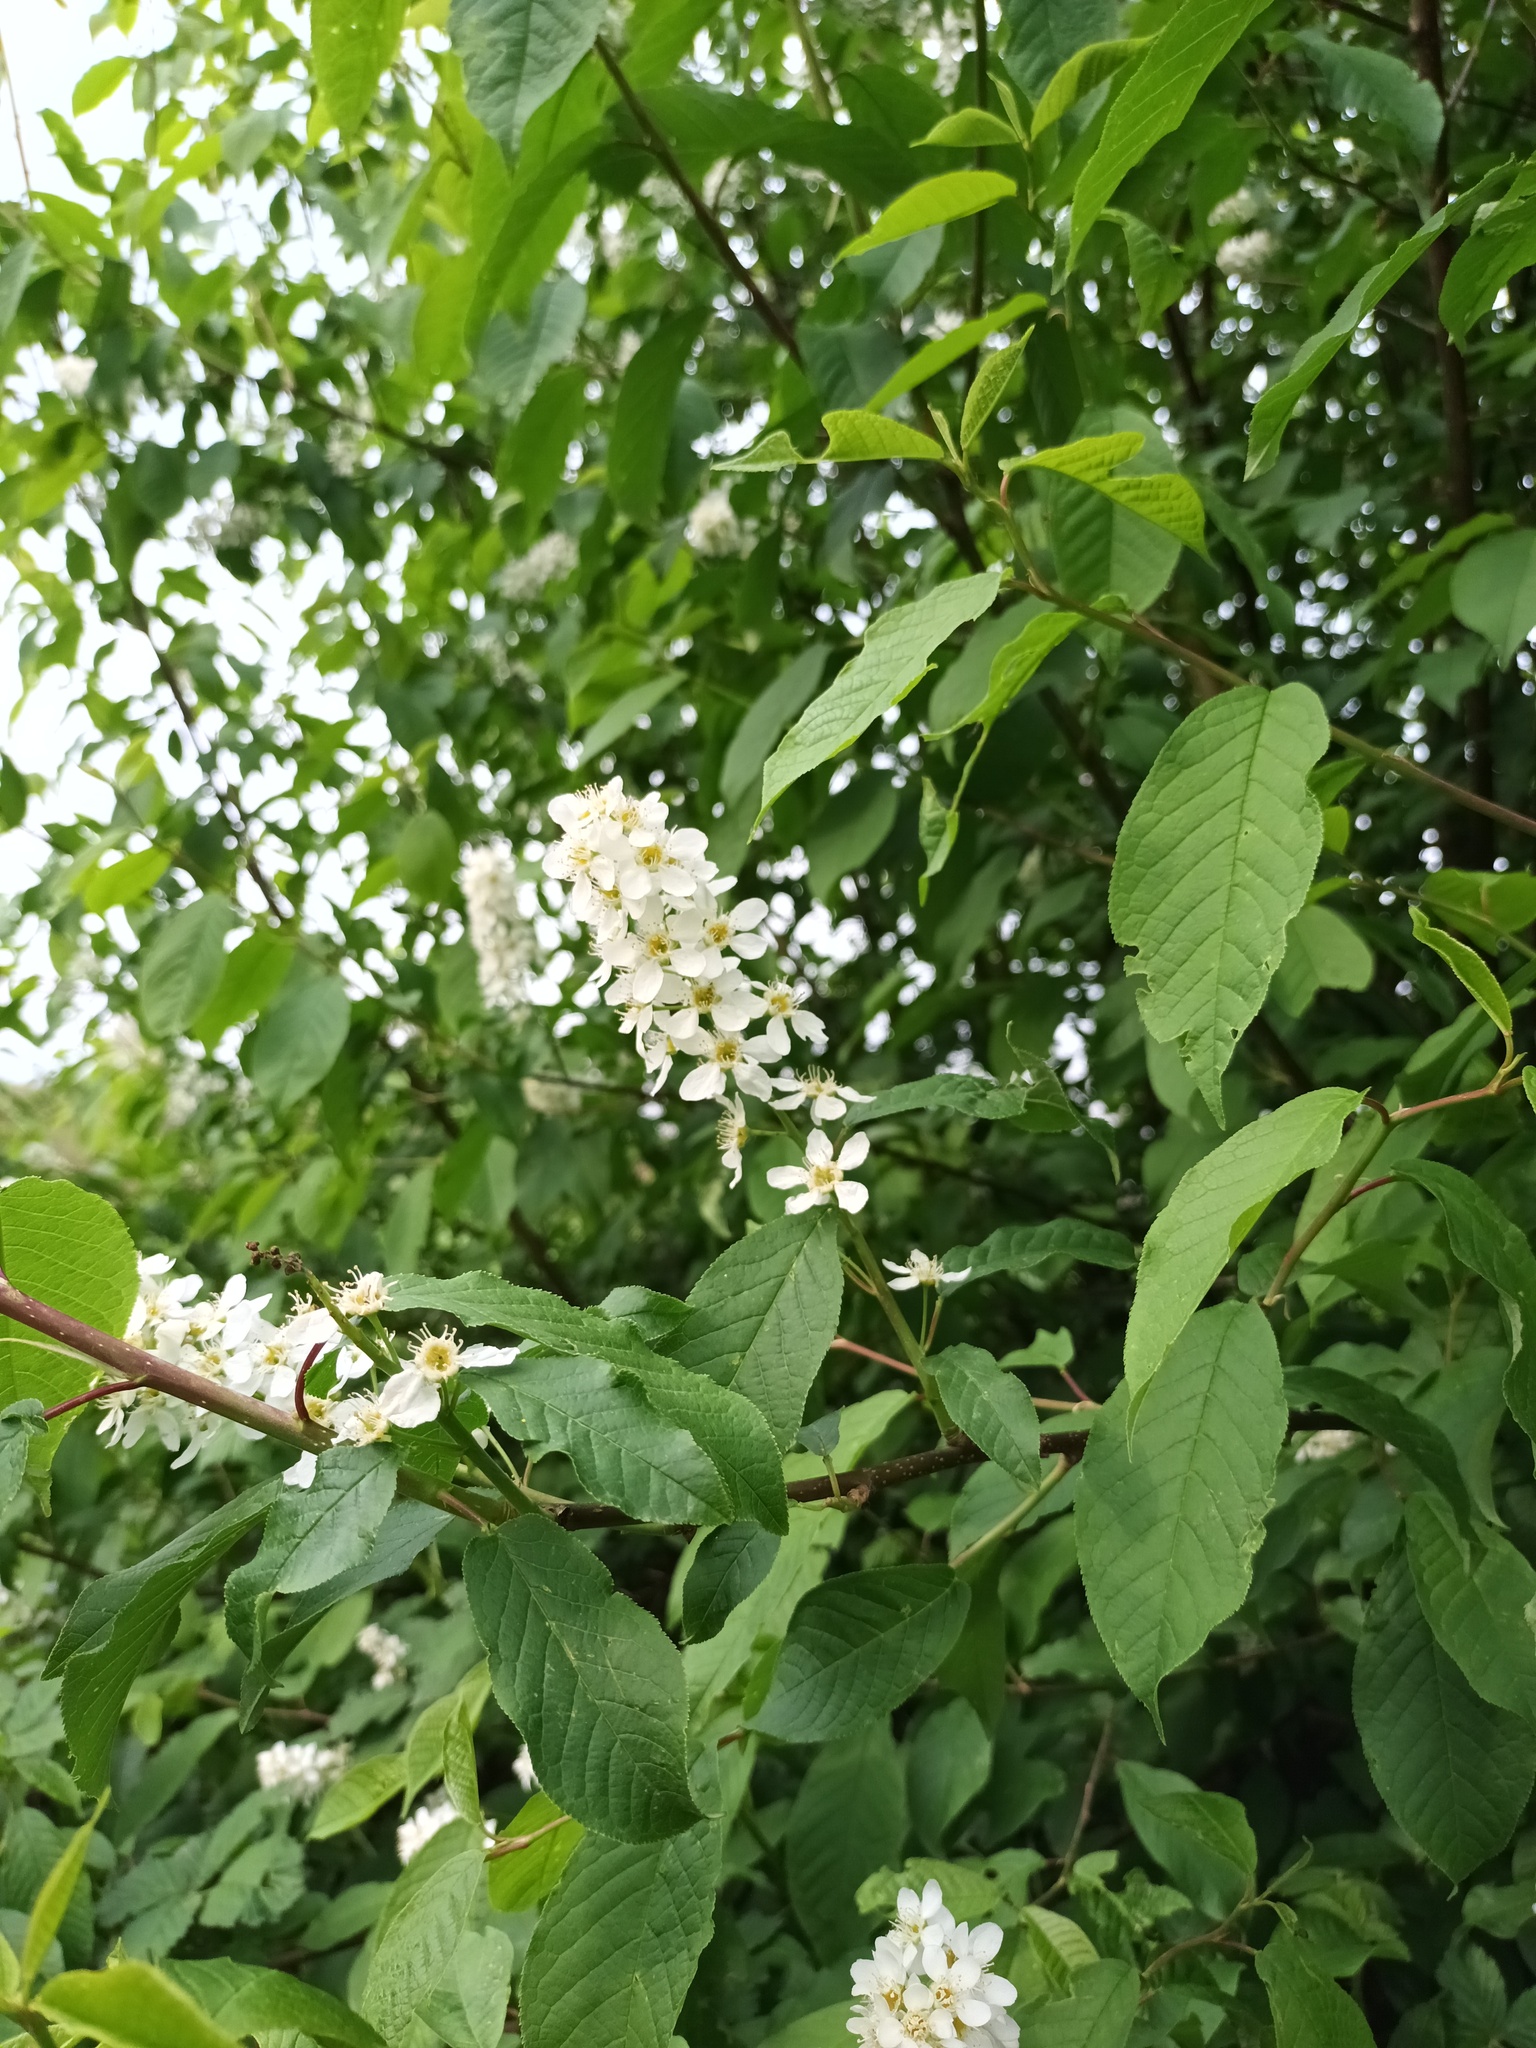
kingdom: Plantae
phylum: Tracheophyta
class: Magnoliopsida
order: Rosales
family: Rosaceae
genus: Prunus
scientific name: Prunus padus
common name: Bird cherry
